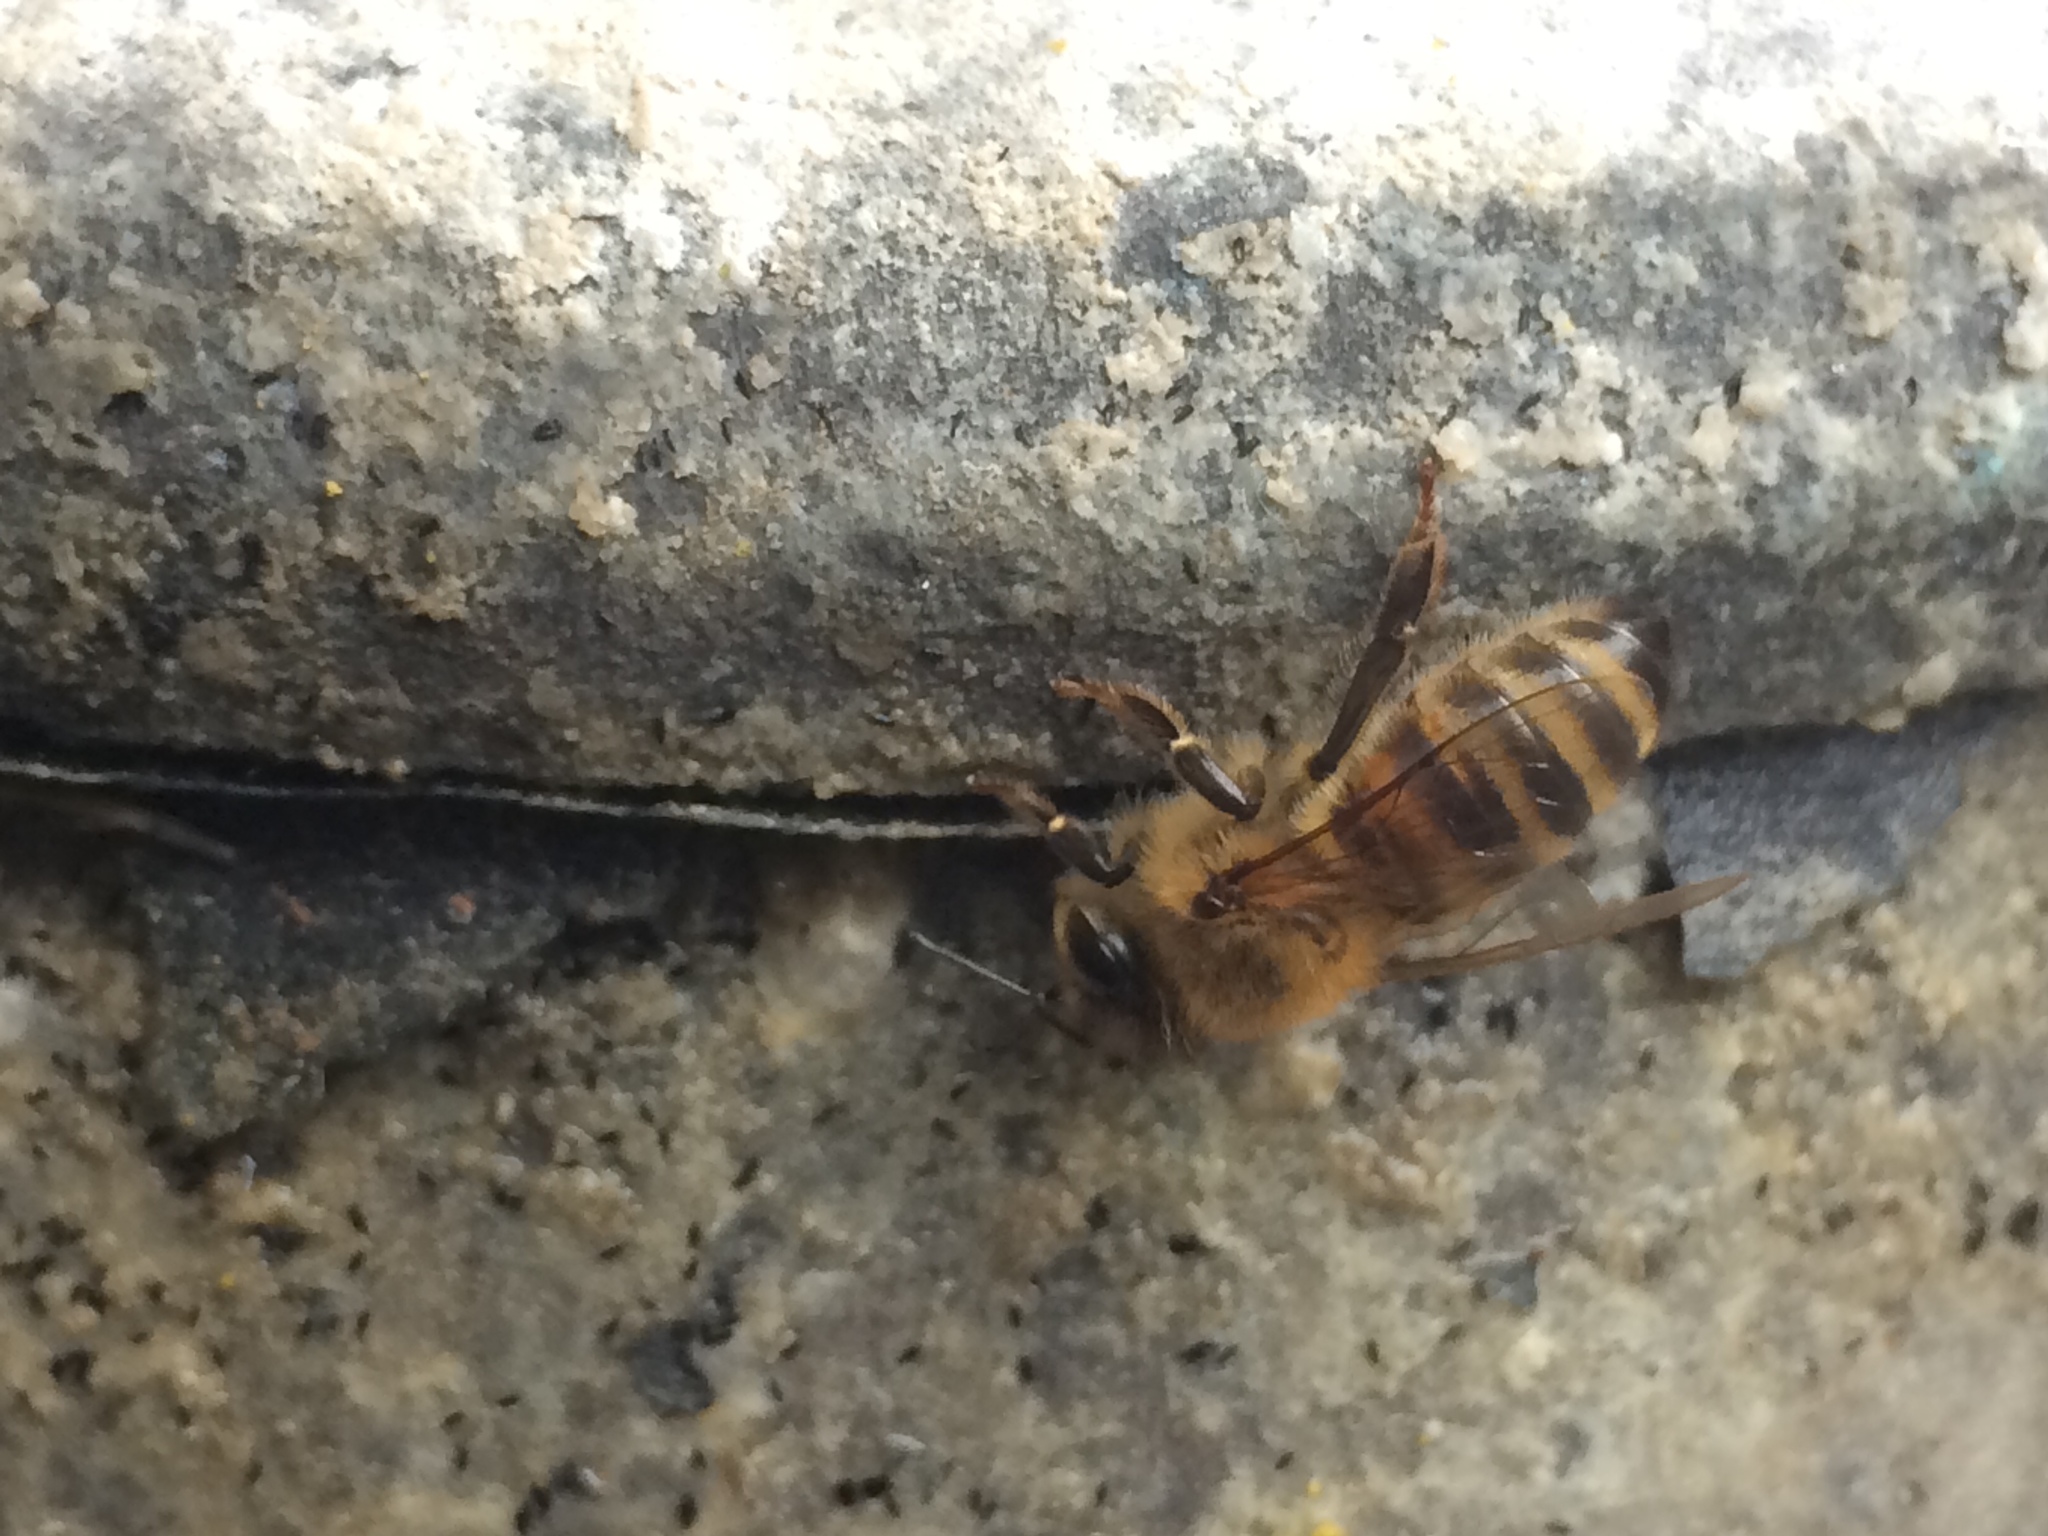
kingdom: Animalia
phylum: Arthropoda
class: Insecta
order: Hymenoptera
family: Apidae
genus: Apis
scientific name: Apis mellifera
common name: Honey bee
